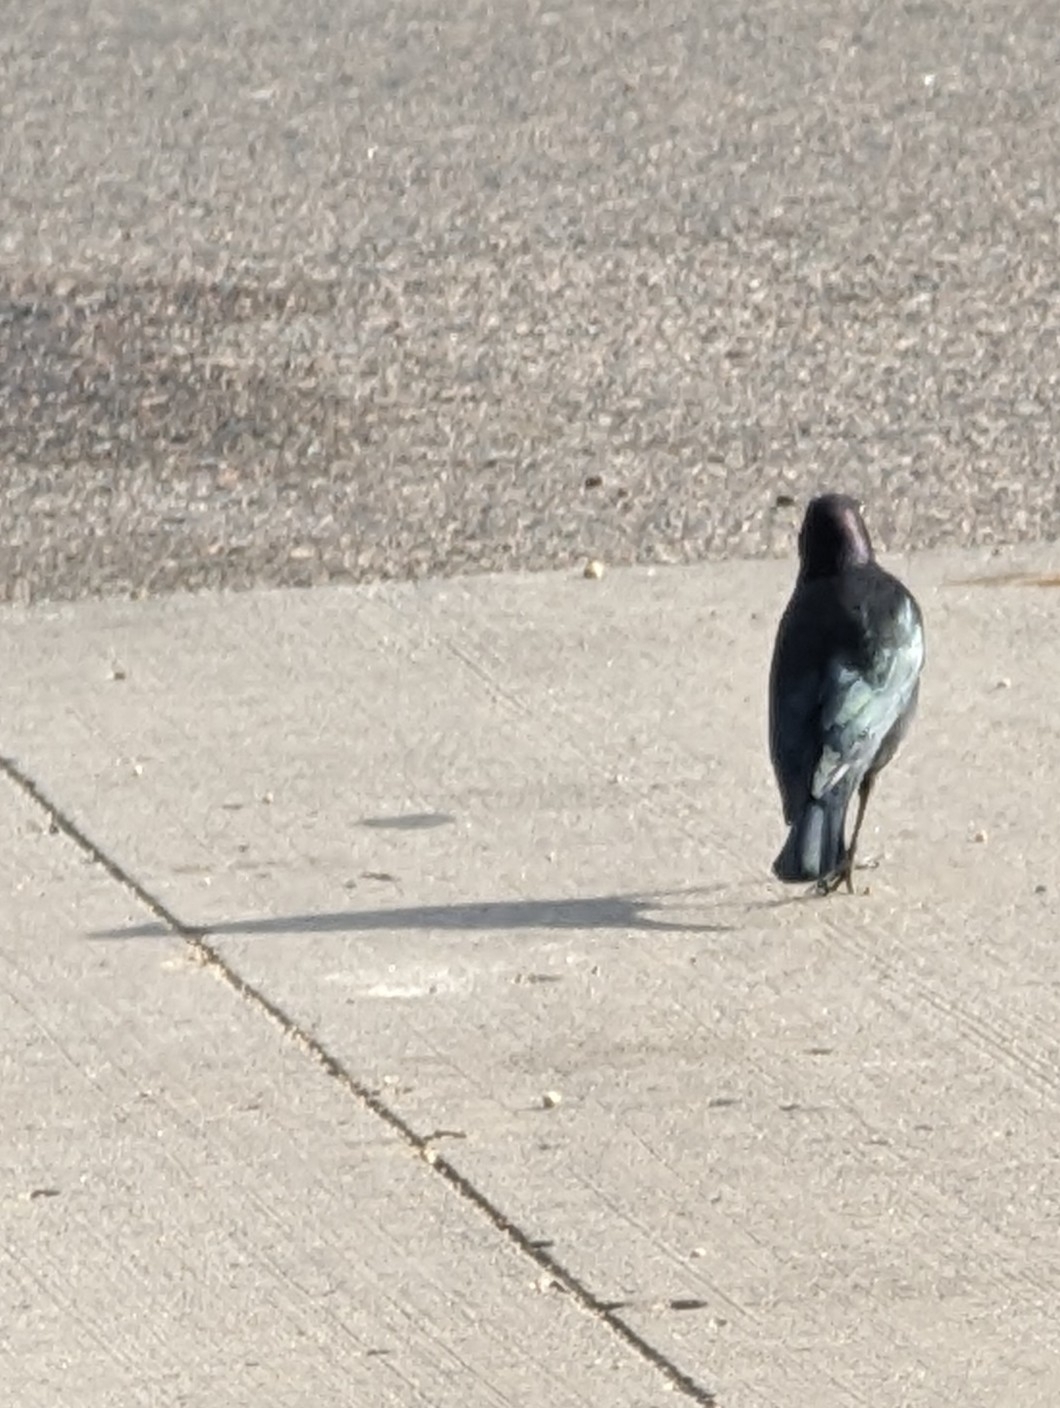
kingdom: Animalia
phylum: Chordata
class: Aves
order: Passeriformes
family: Icteridae
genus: Euphagus
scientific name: Euphagus cyanocephalus
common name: Brewer's blackbird
